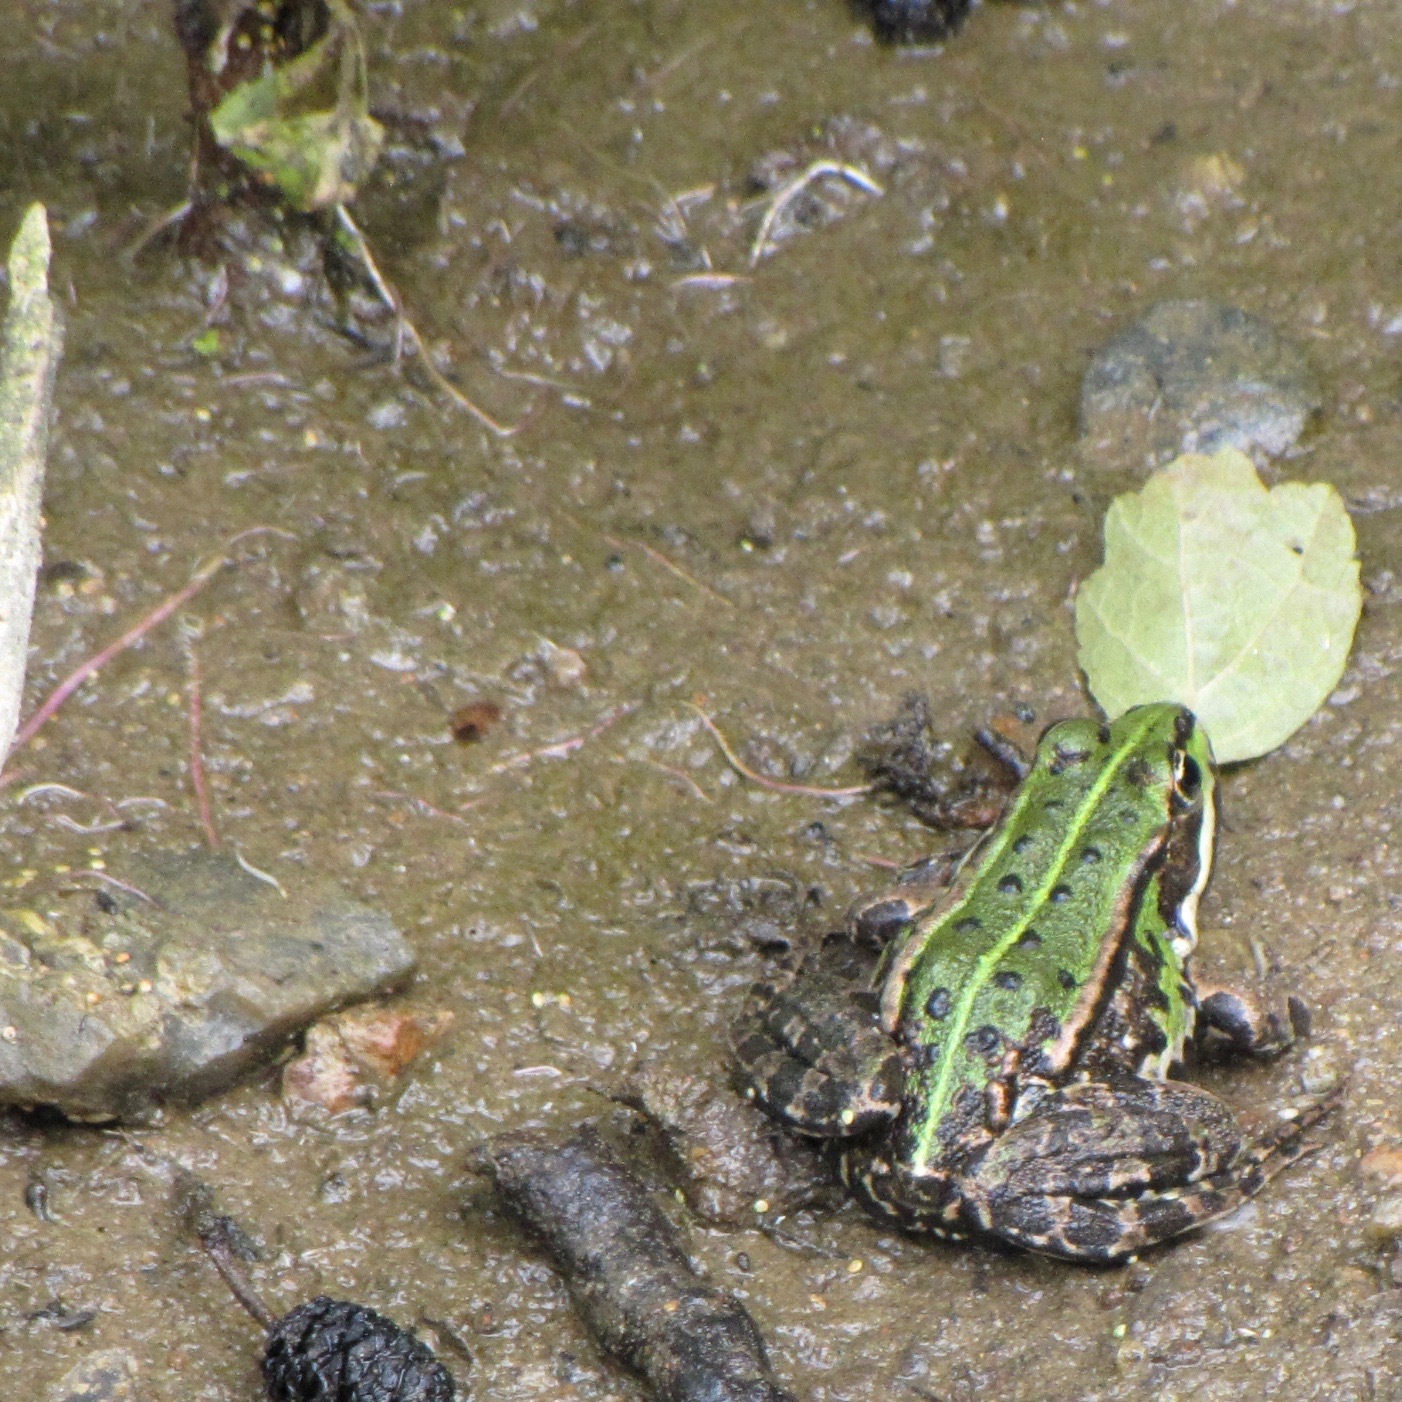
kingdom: Animalia
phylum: Chordata
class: Amphibia
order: Anura
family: Ranidae
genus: Pelophylax
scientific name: Pelophylax lessonae
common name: Pool frog
